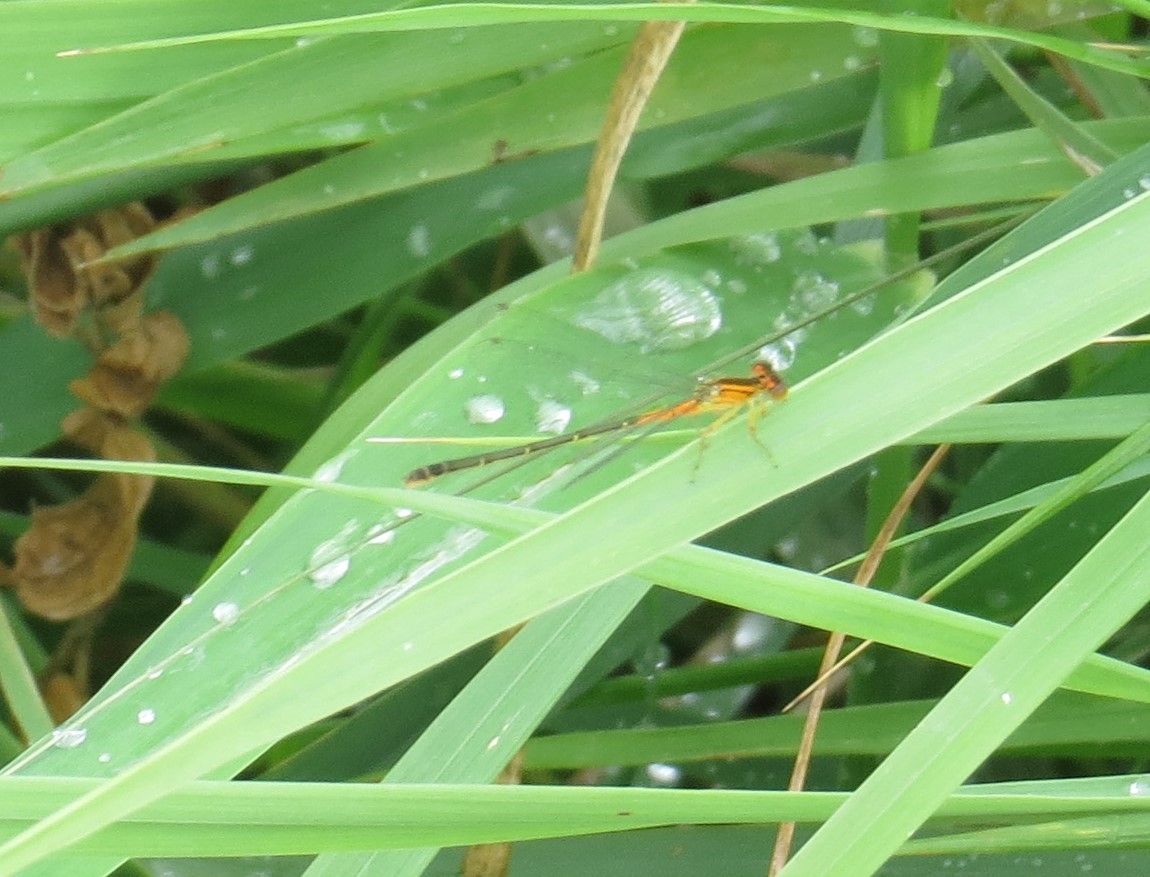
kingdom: Animalia
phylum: Arthropoda
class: Insecta
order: Odonata
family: Coenagrionidae
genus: Ischnura
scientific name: Ischnura verticalis
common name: Eastern forktail
